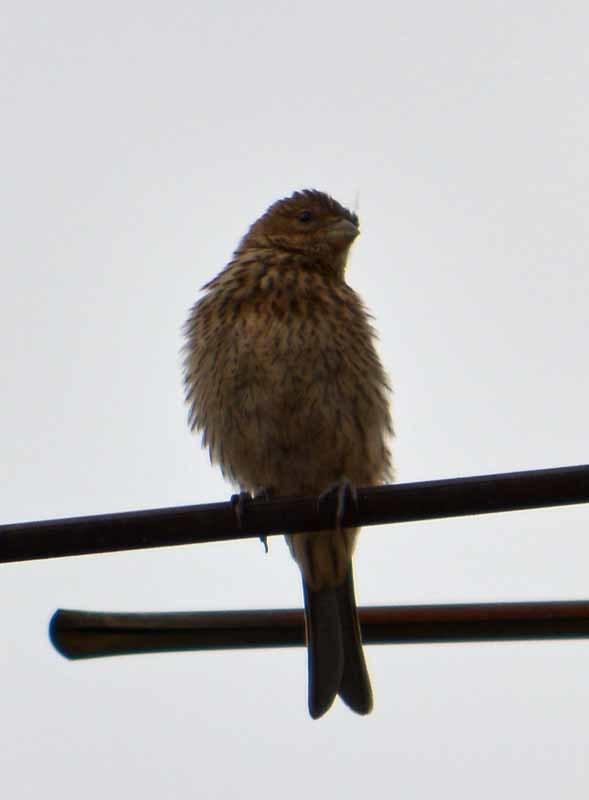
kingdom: Animalia
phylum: Chordata
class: Aves
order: Passeriformes
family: Fringillidae
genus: Haemorhous
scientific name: Haemorhous mexicanus
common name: House finch
